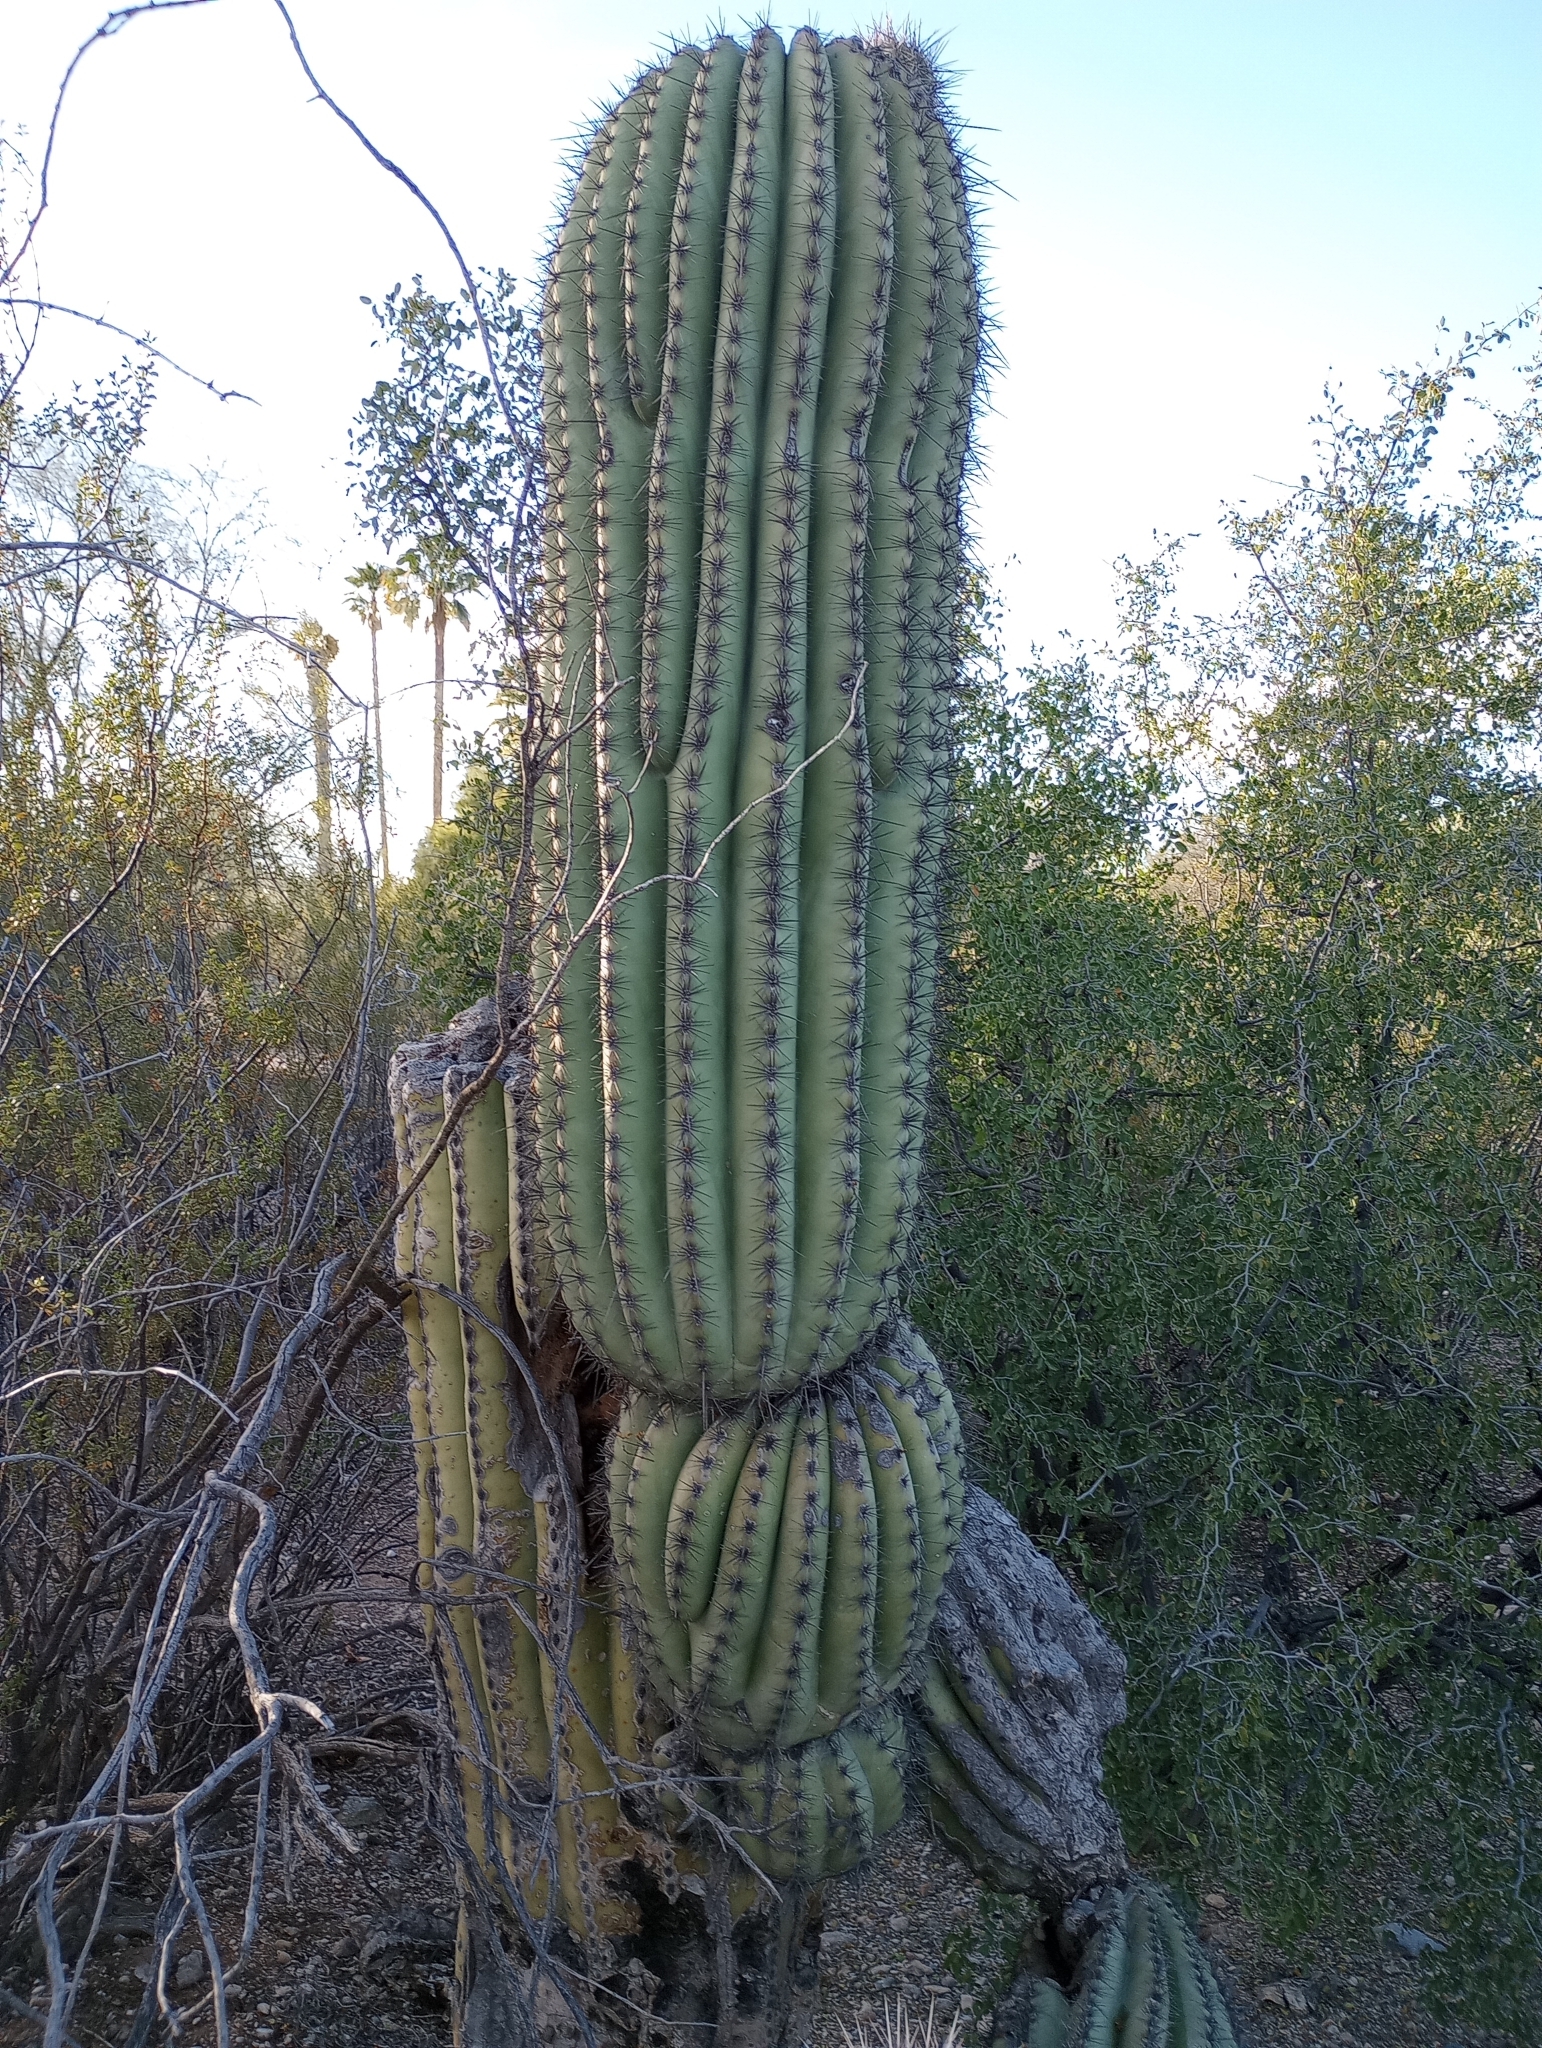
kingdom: Plantae
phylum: Tracheophyta
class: Magnoliopsida
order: Caryophyllales
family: Cactaceae
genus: Carnegiea
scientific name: Carnegiea gigantea
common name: Saguaro
